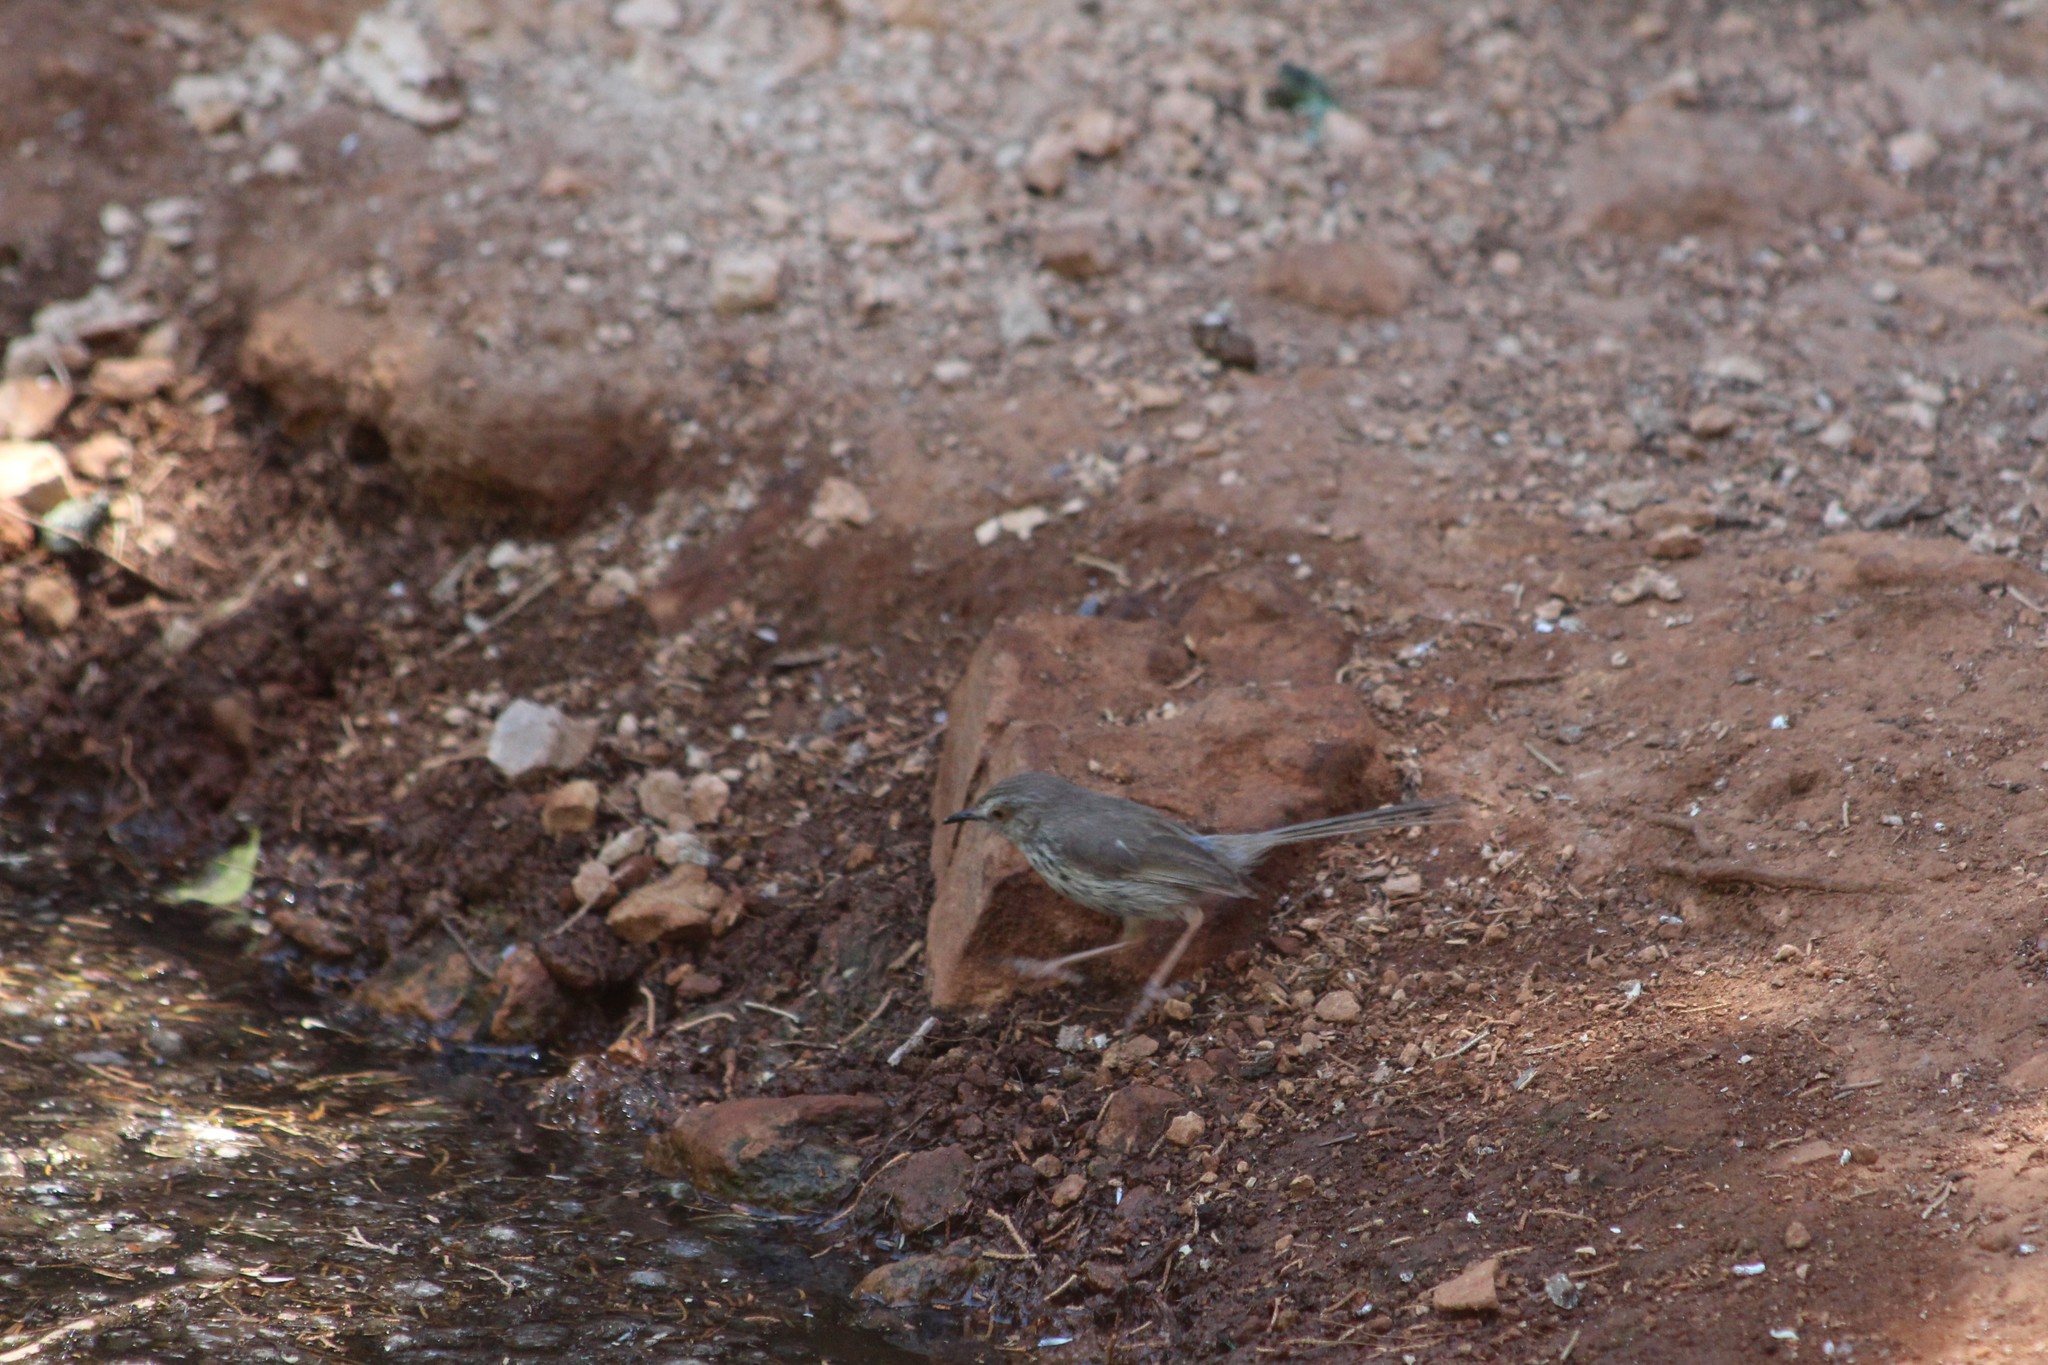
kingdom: Animalia
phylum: Chordata
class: Aves
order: Passeriformes
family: Cisticolidae
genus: Prinia
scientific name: Prinia maculosa
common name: Karoo prinia
